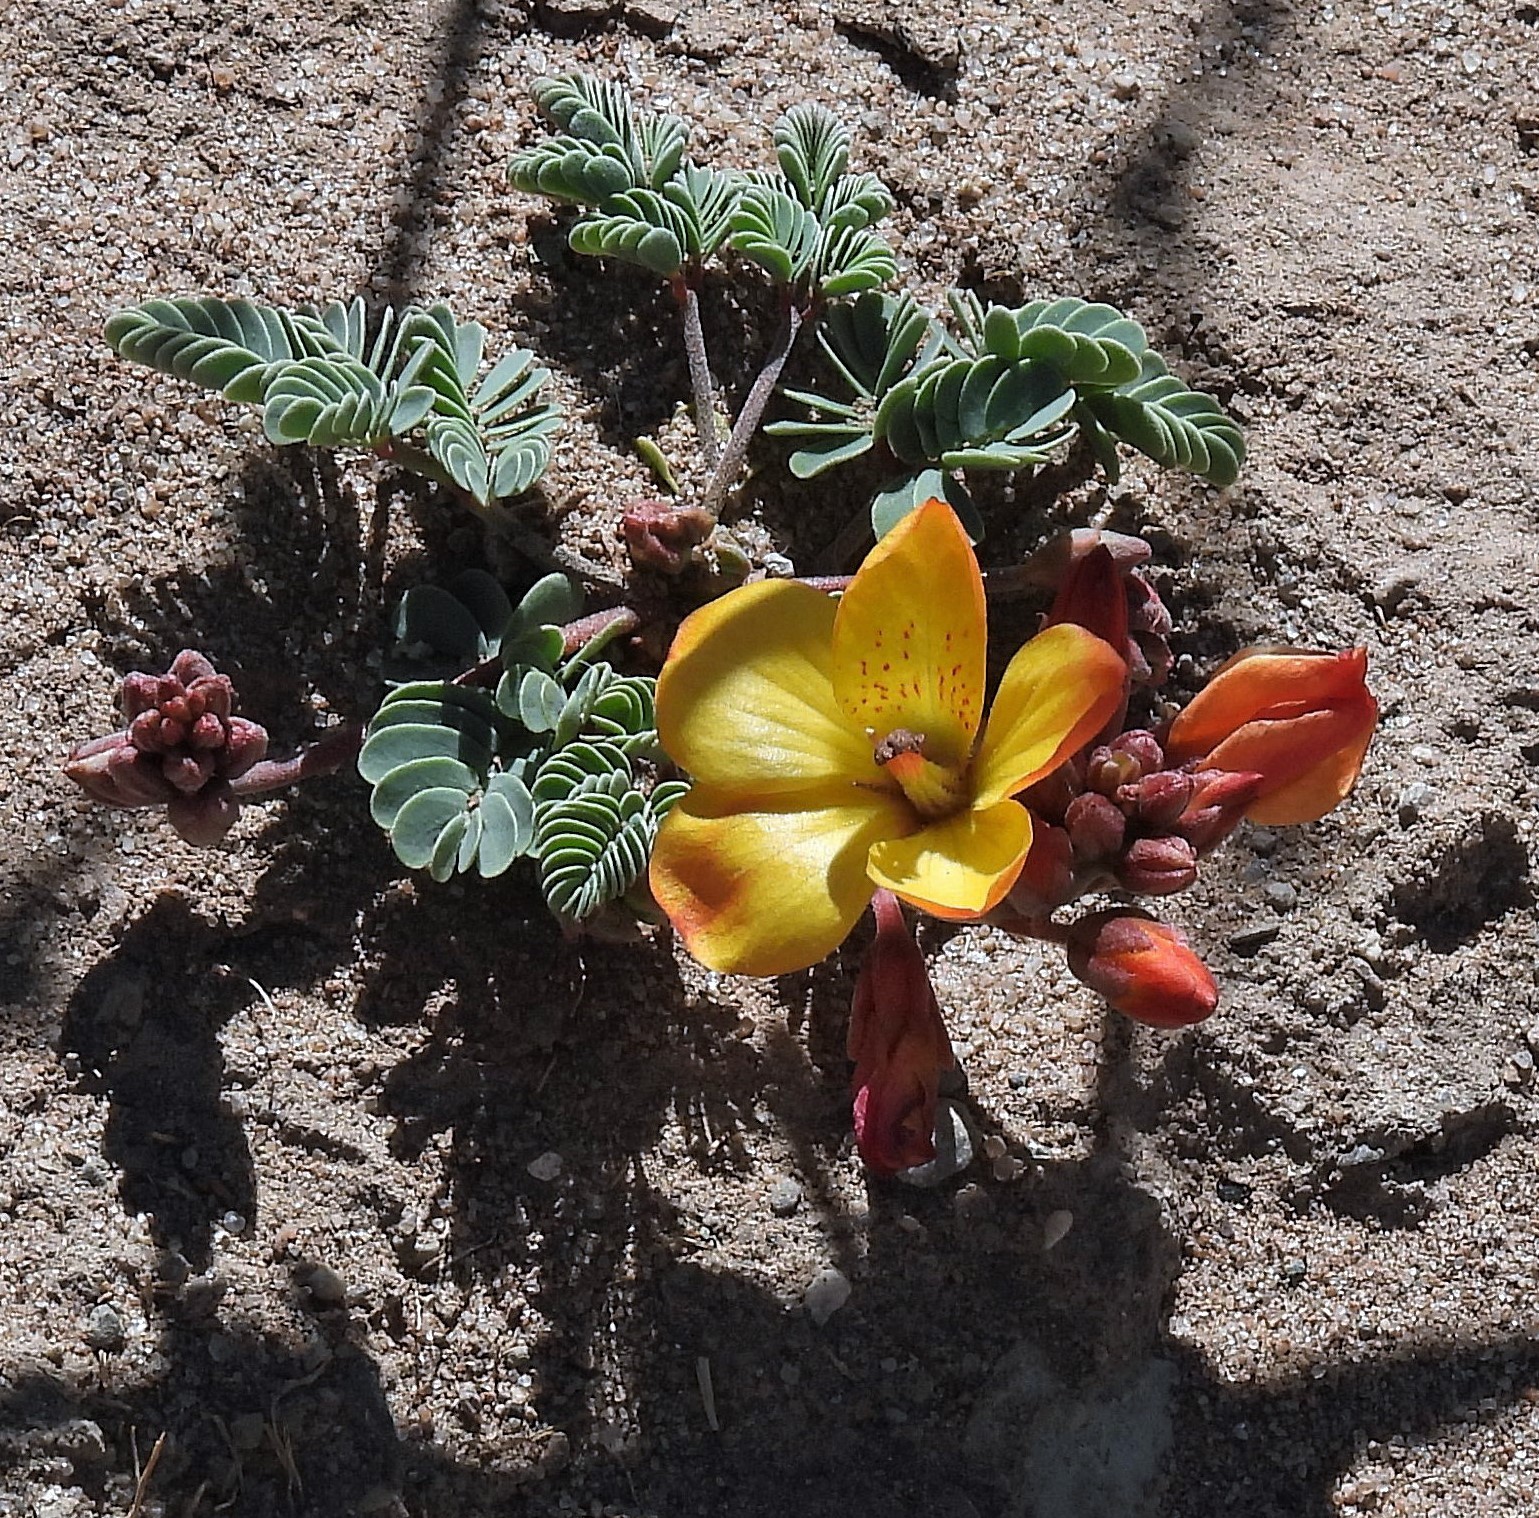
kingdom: Plantae
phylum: Tracheophyta
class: Magnoliopsida
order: Fabales
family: Fabaceae
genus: Hoffmannseggia
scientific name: Hoffmannseggia minor
